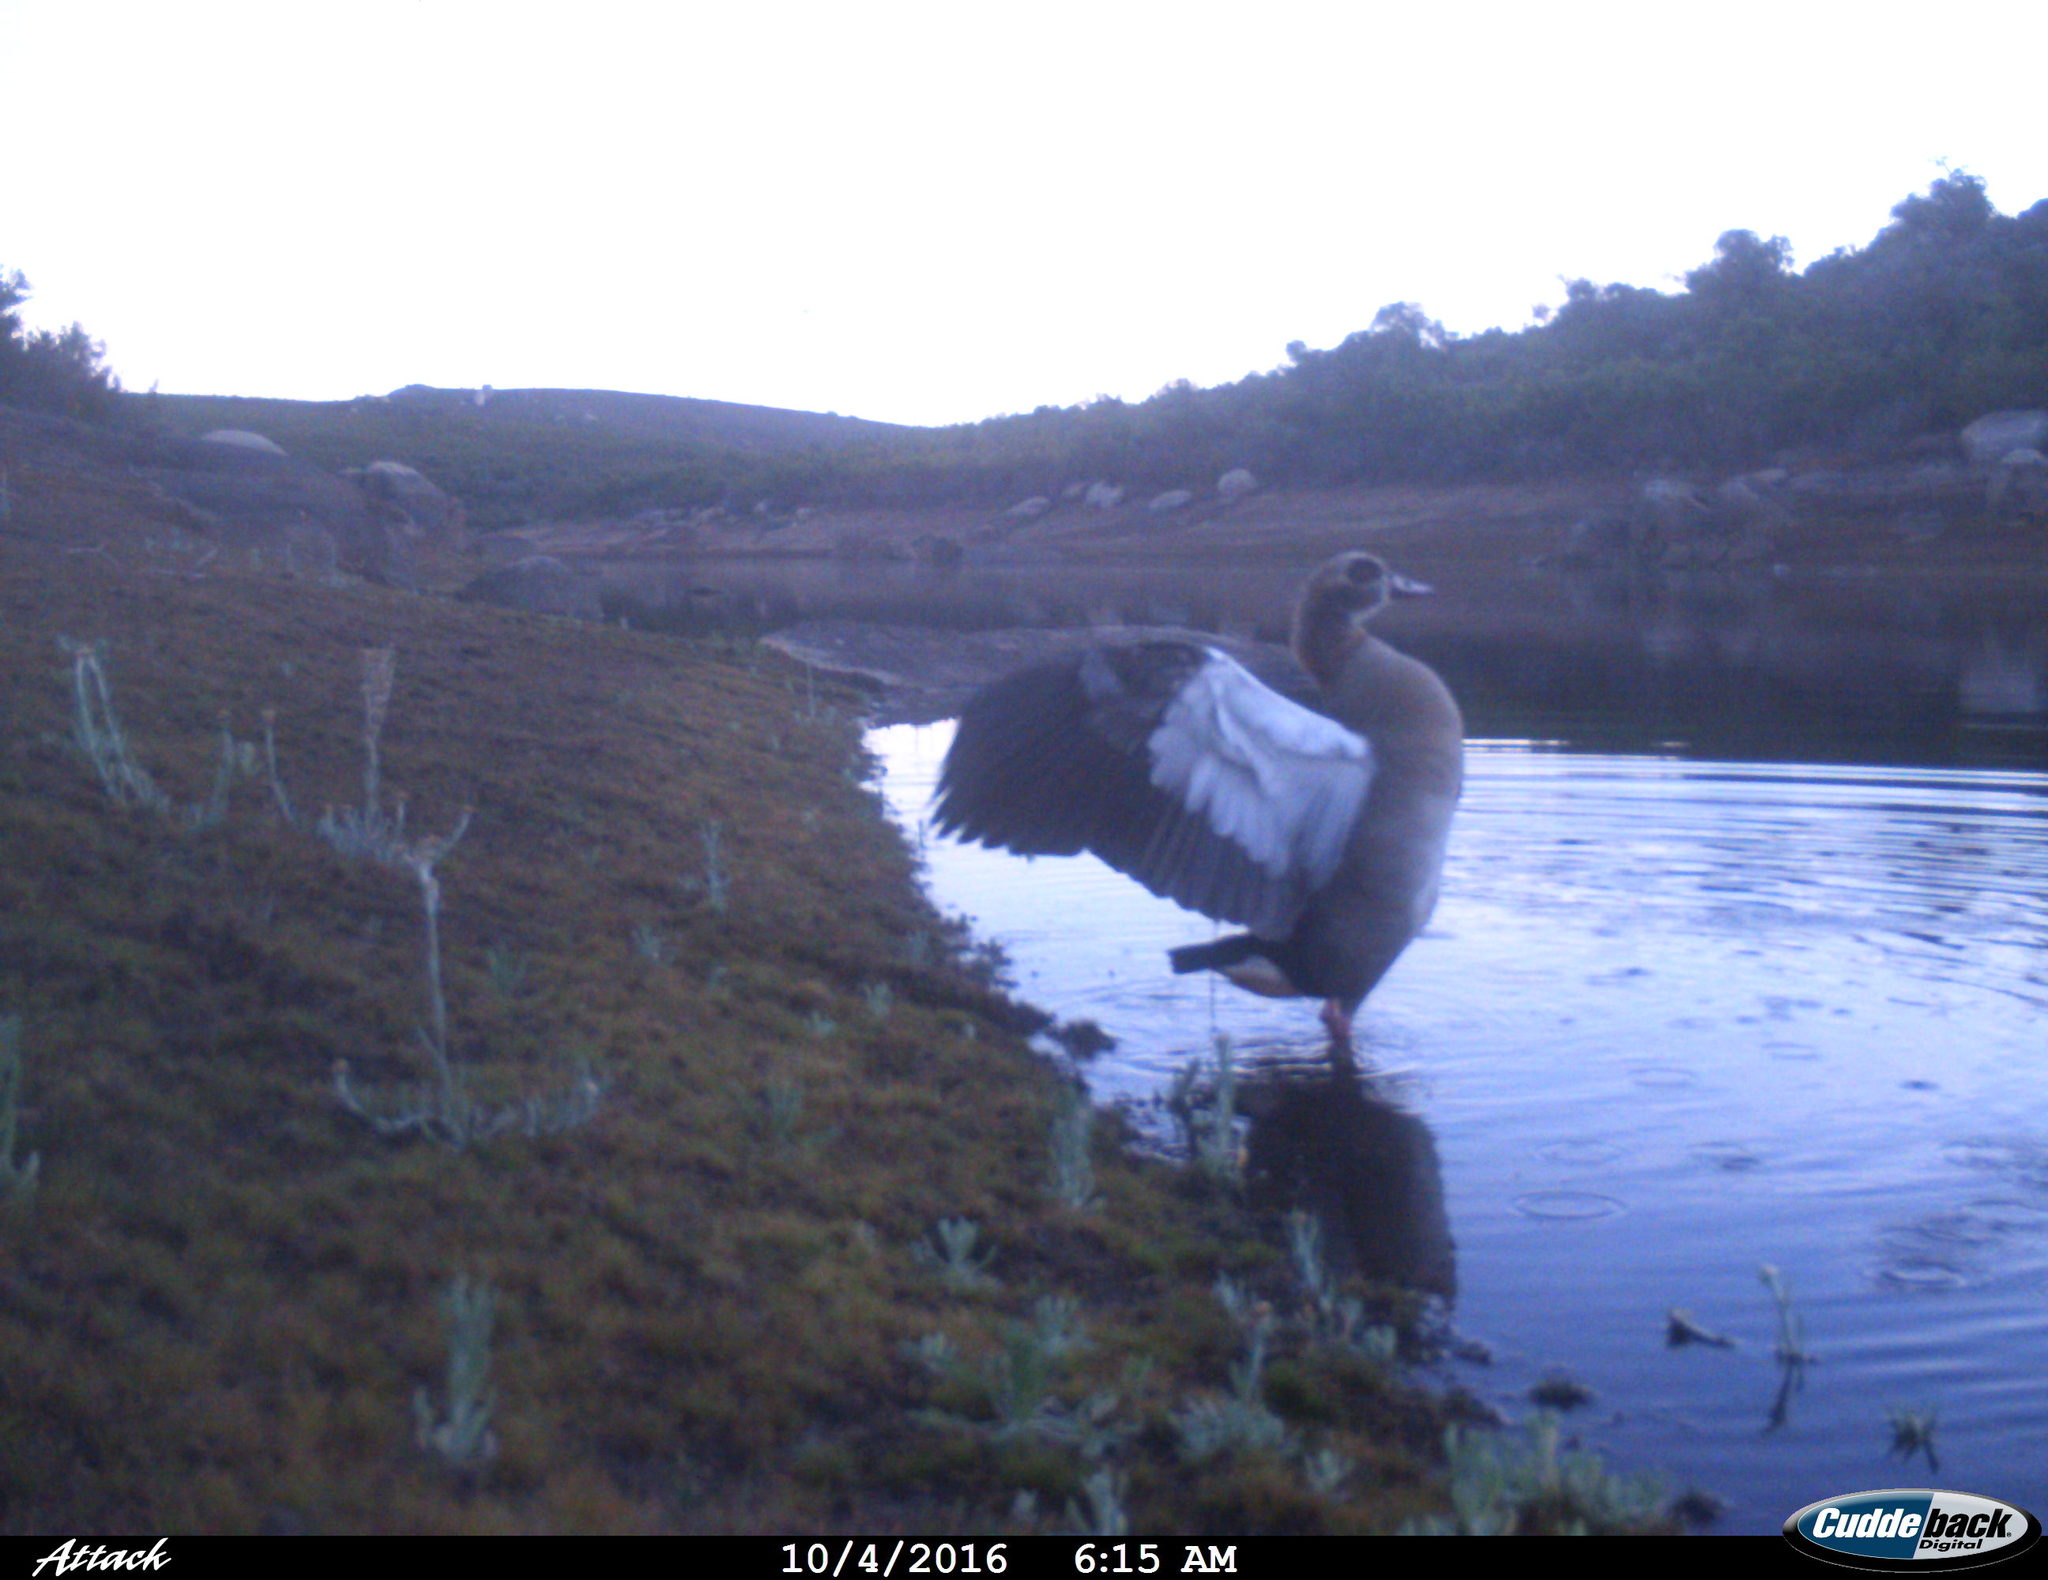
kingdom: Animalia
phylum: Chordata
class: Aves
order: Anseriformes
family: Anatidae
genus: Alopochen
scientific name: Alopochen aegyptiaca
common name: Egyptian goose
